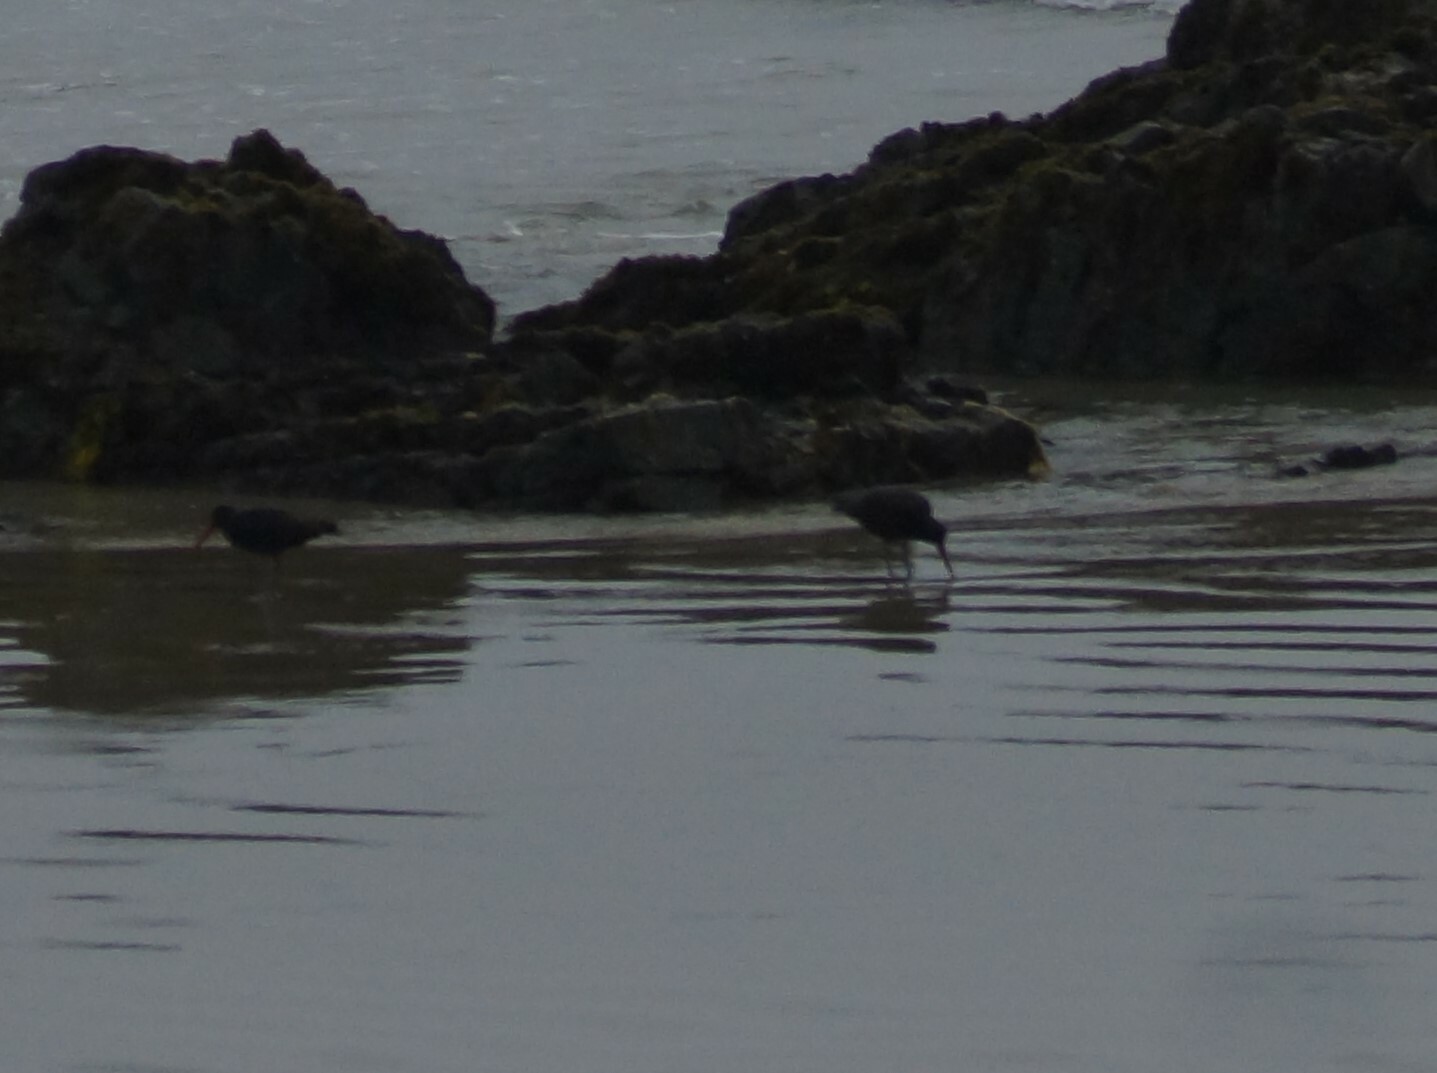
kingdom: Animalia
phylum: Chordata
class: Aves
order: Charadriiformes
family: Haematopodidae
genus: Haematopus
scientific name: Haematopus unicolor
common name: Variable oystercatcher
